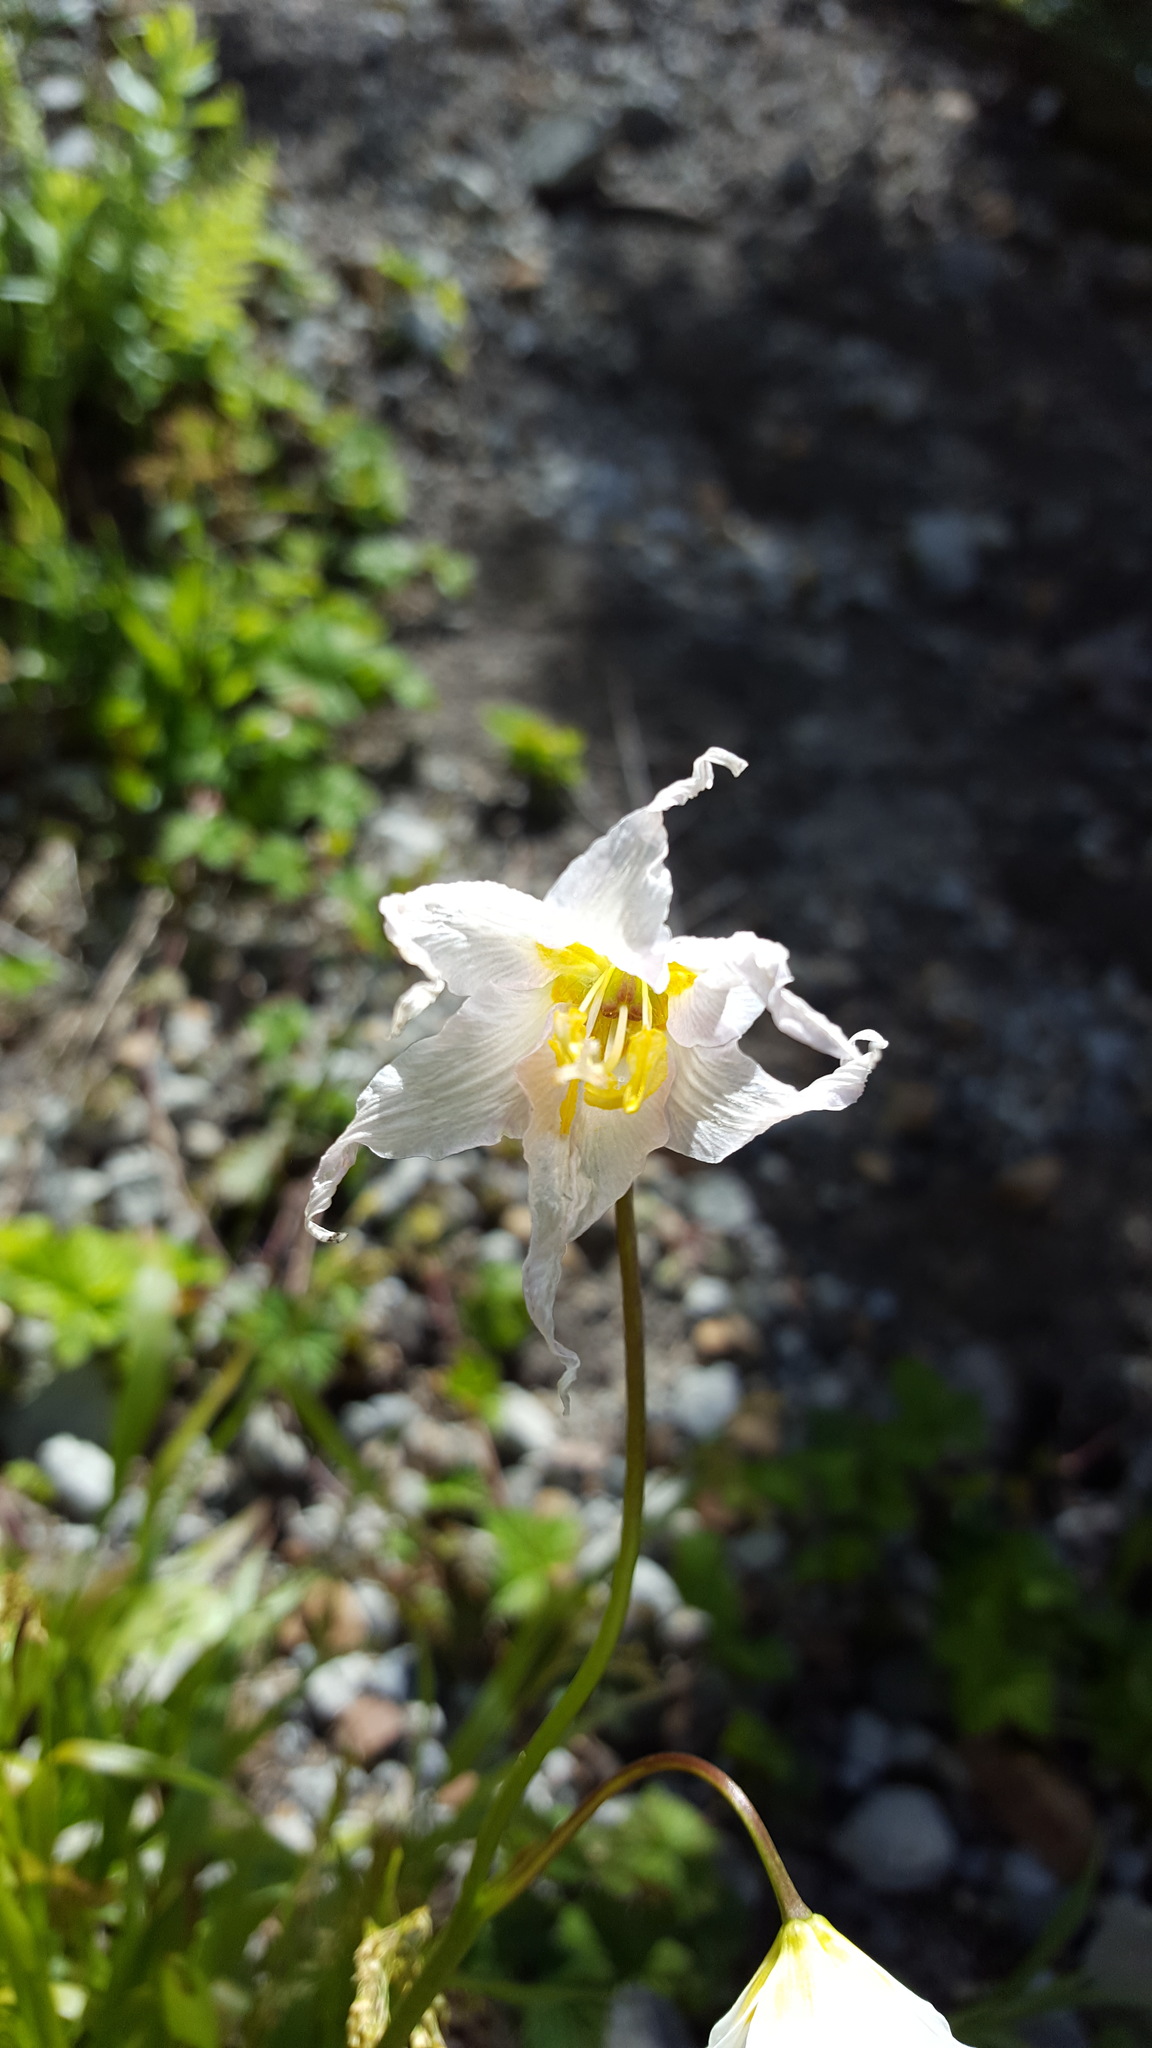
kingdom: Plantae
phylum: Tracheophyta
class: Liliopsida
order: Liliales
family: Liliaceae
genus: Erythronium
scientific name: Erythronium montanum
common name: Avalanche lily
